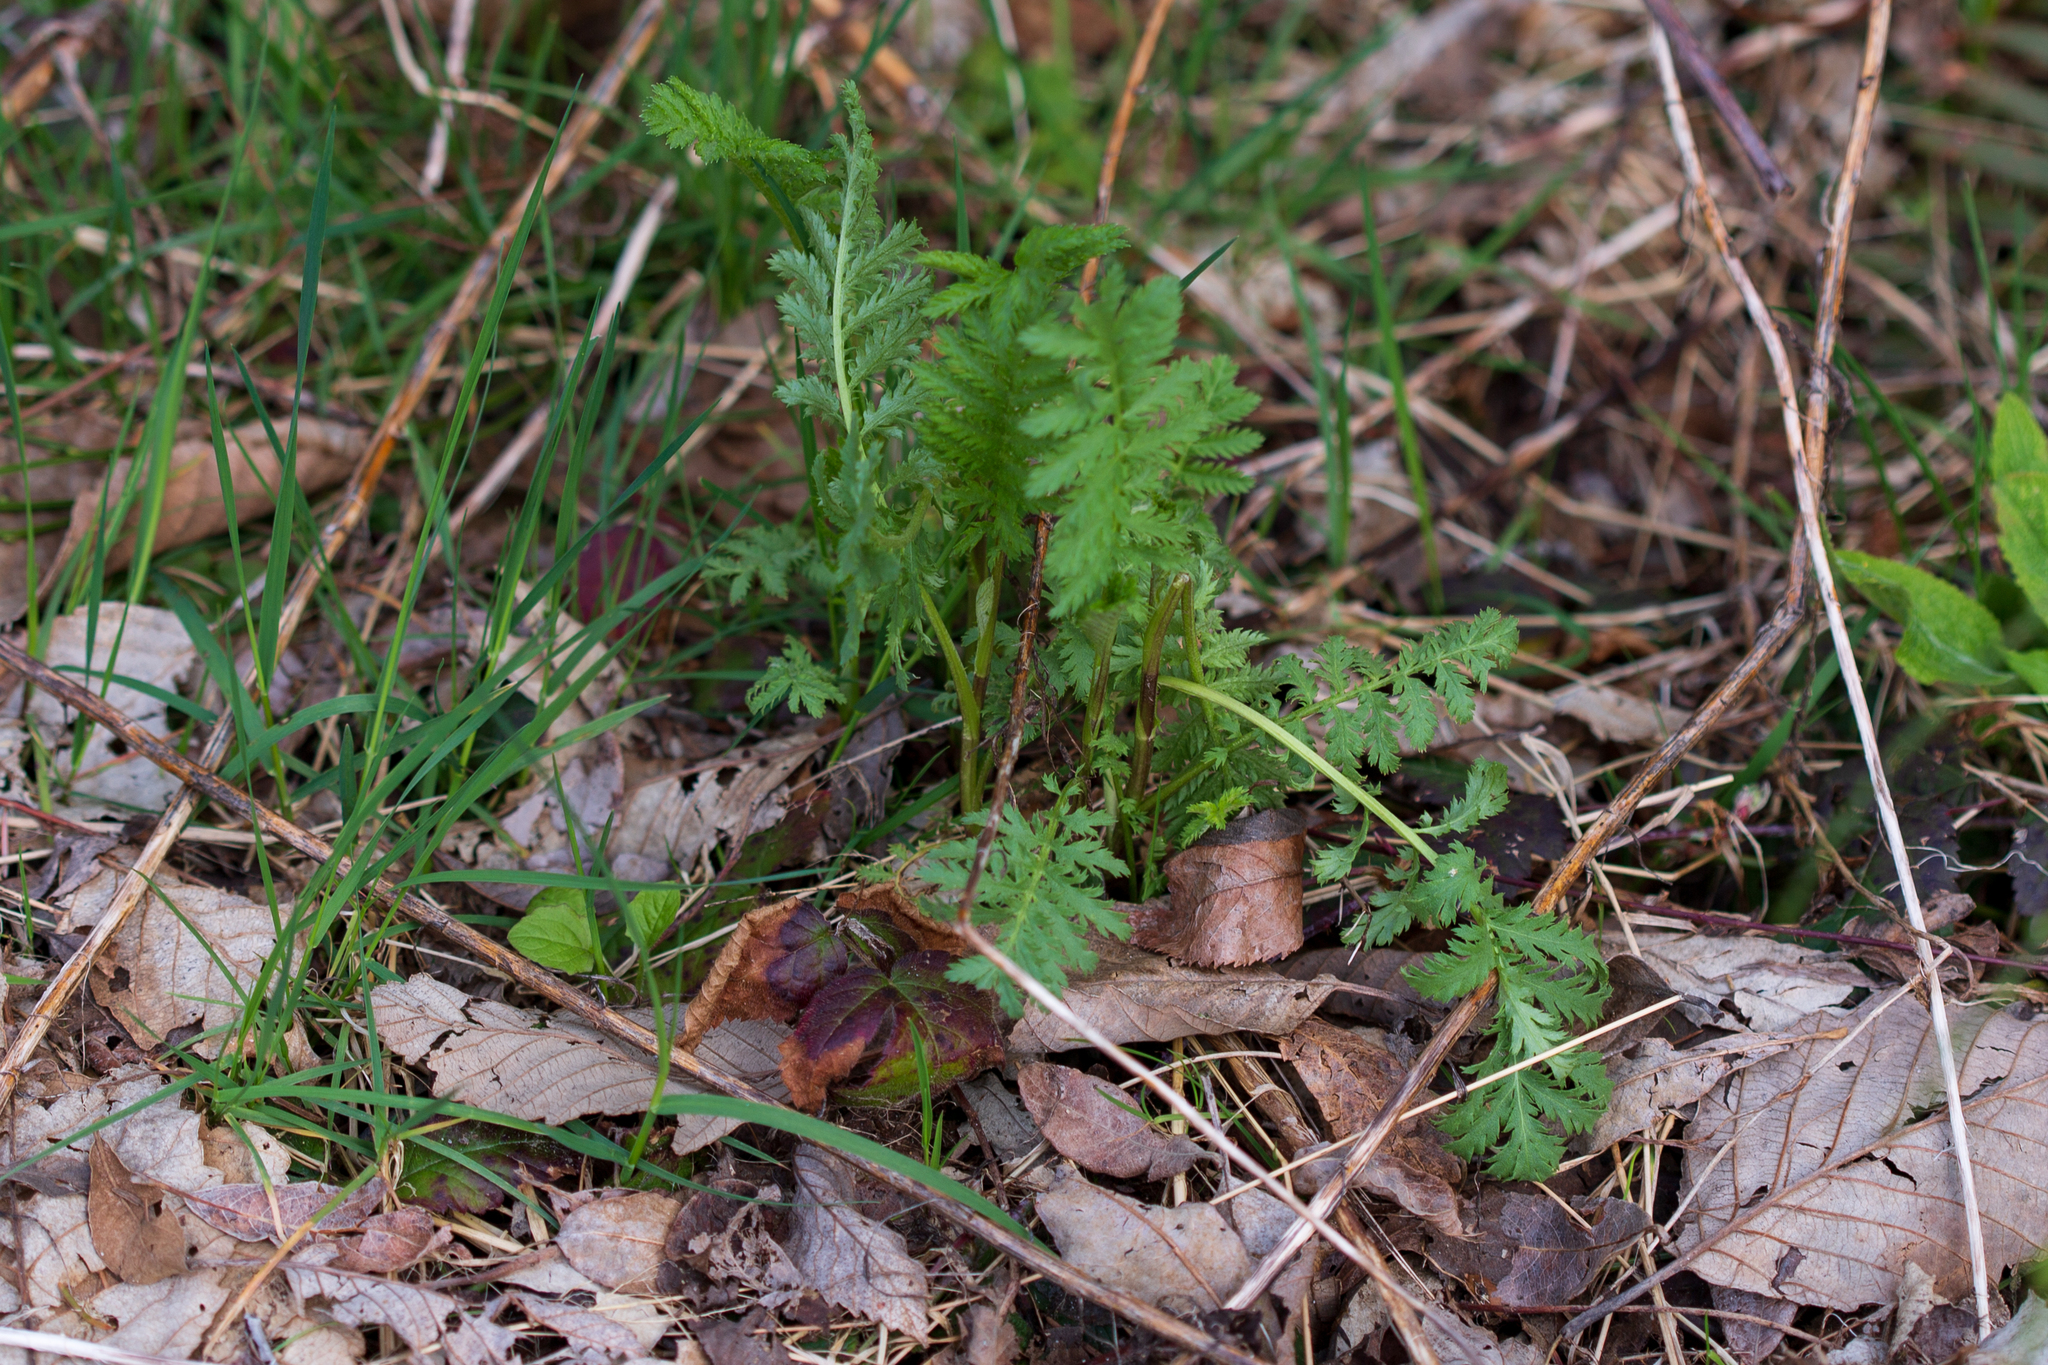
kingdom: Plantae
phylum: Tracheophyta
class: Magnoliopsida
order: Asterales
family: Asteraceae
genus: Tanacetum
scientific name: Tanacetum vulgare
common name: Common tansy
